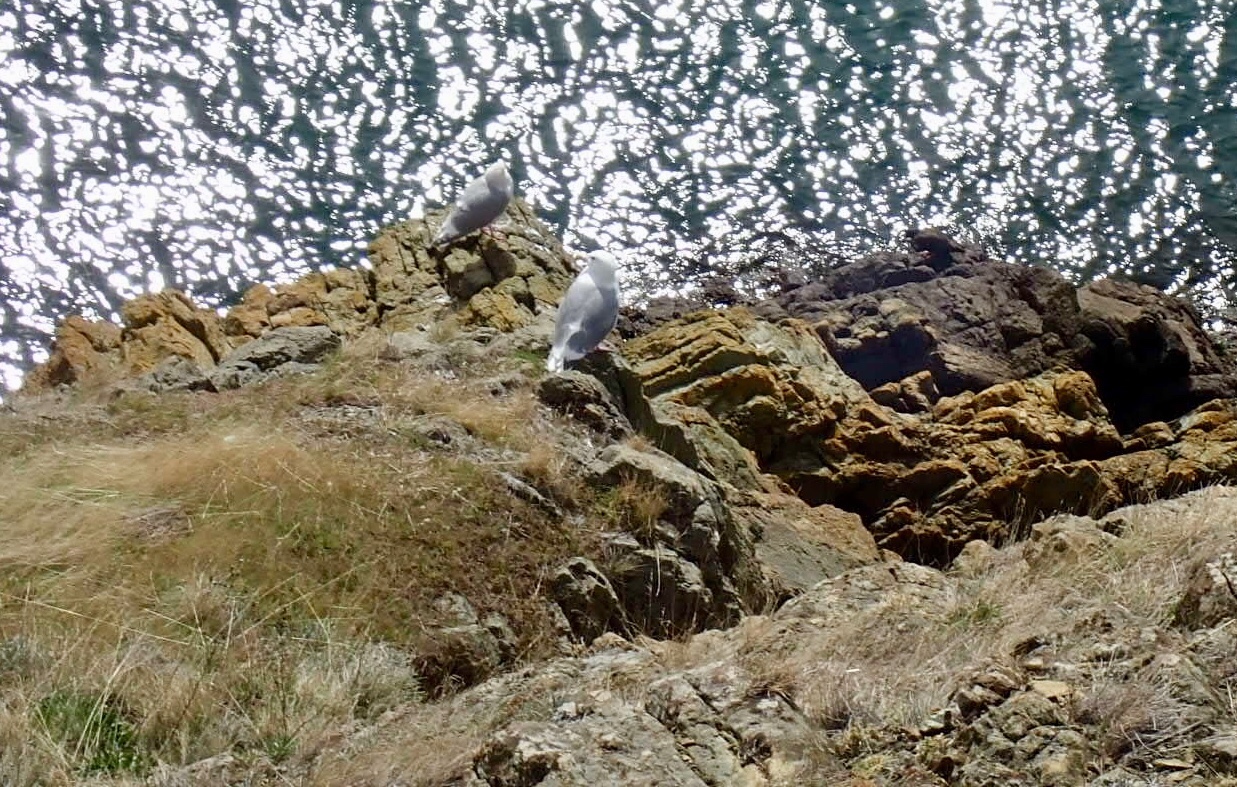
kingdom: Animalia
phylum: Chordata
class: Aves
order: Charadriiformes
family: Laridae
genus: Larus
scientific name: Larus glaucescens
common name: Glaucous-winged gull
